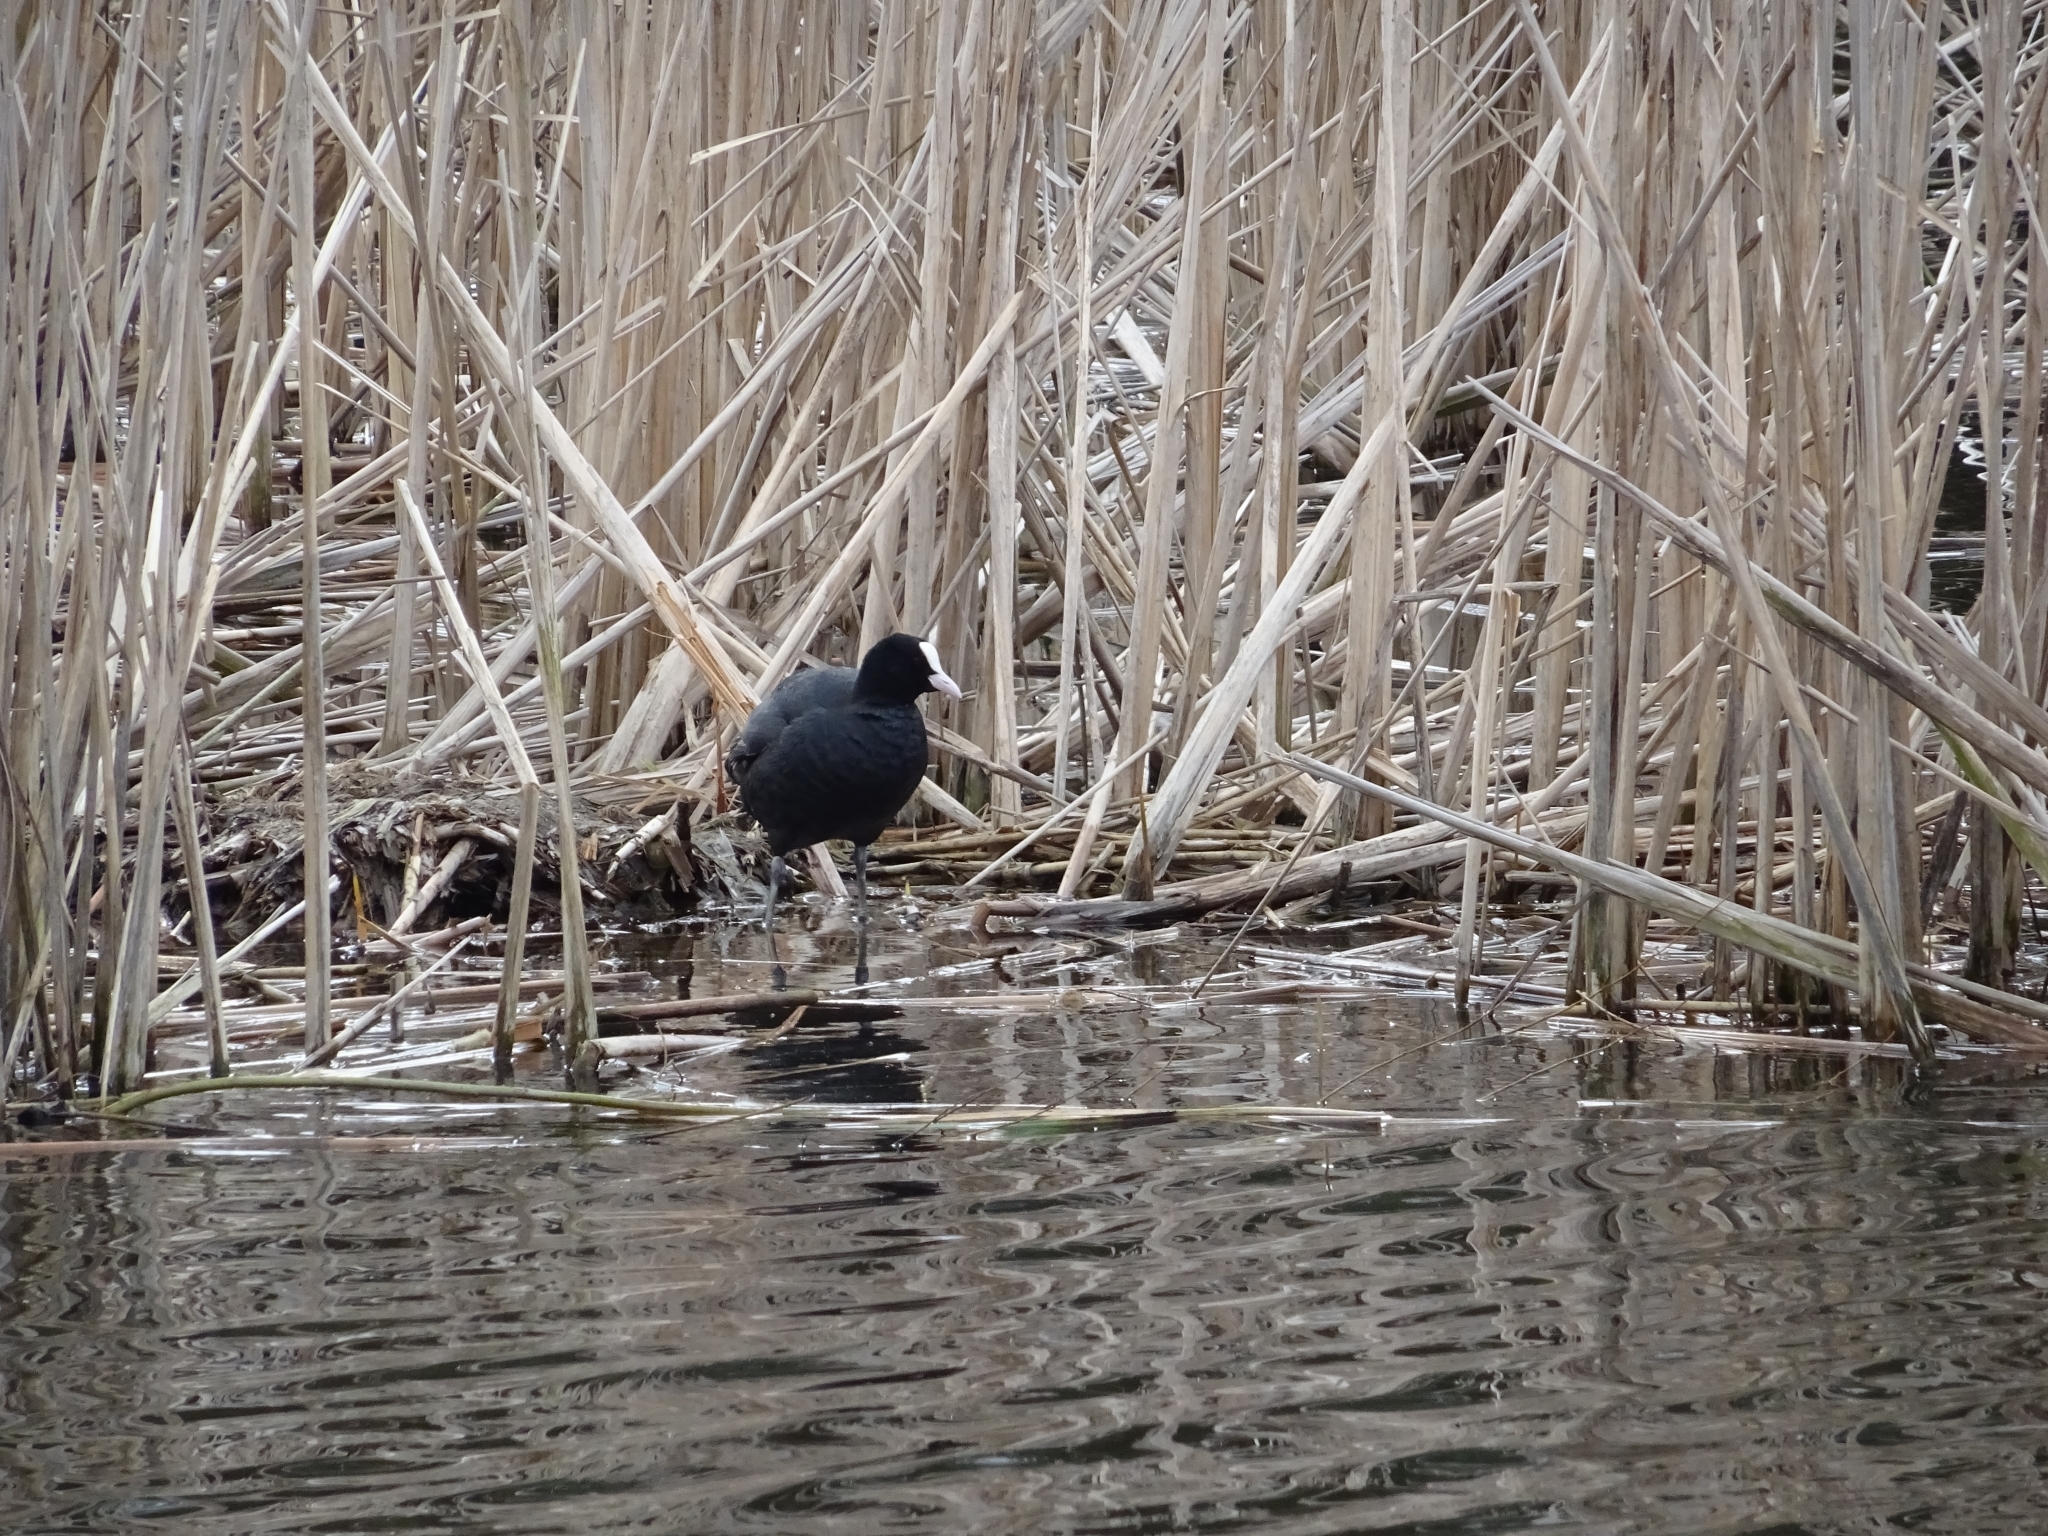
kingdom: Animalia
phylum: Chordata
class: Aves
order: Gruiformes
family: Rallidae
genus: Fulica
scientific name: Fulica atra
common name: Eurasian coot
